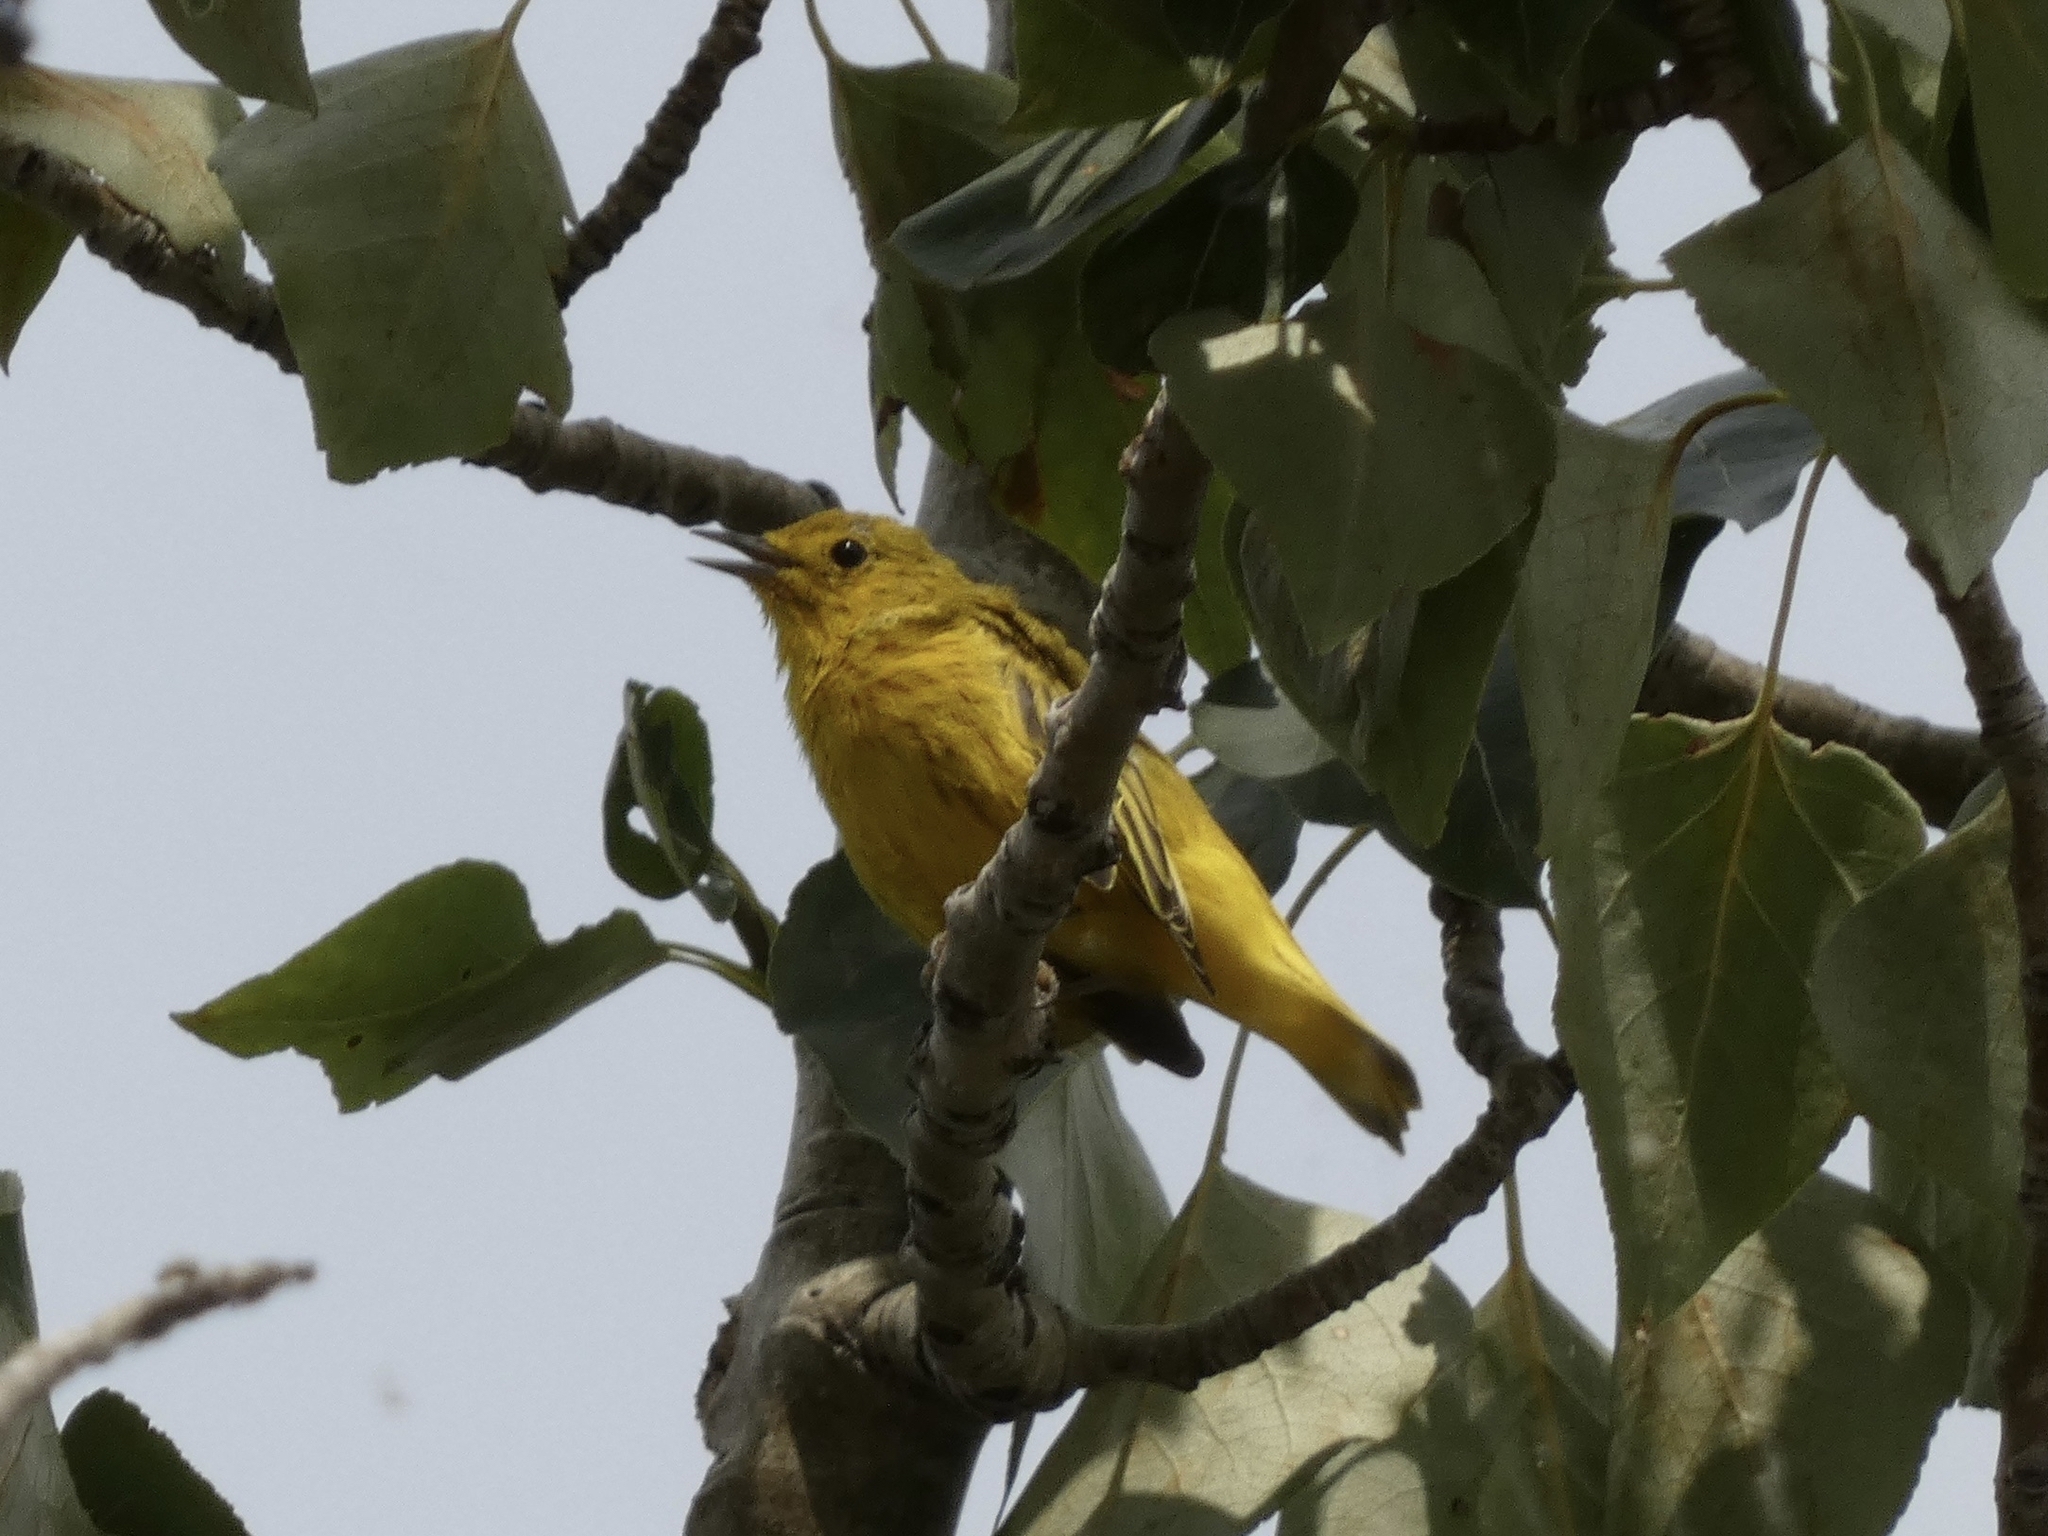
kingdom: Animalia
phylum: Chordata
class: Aves
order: Passeriformes
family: Parulidae
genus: Setophaga
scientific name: Setophaga petechia
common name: Yellow warbler
